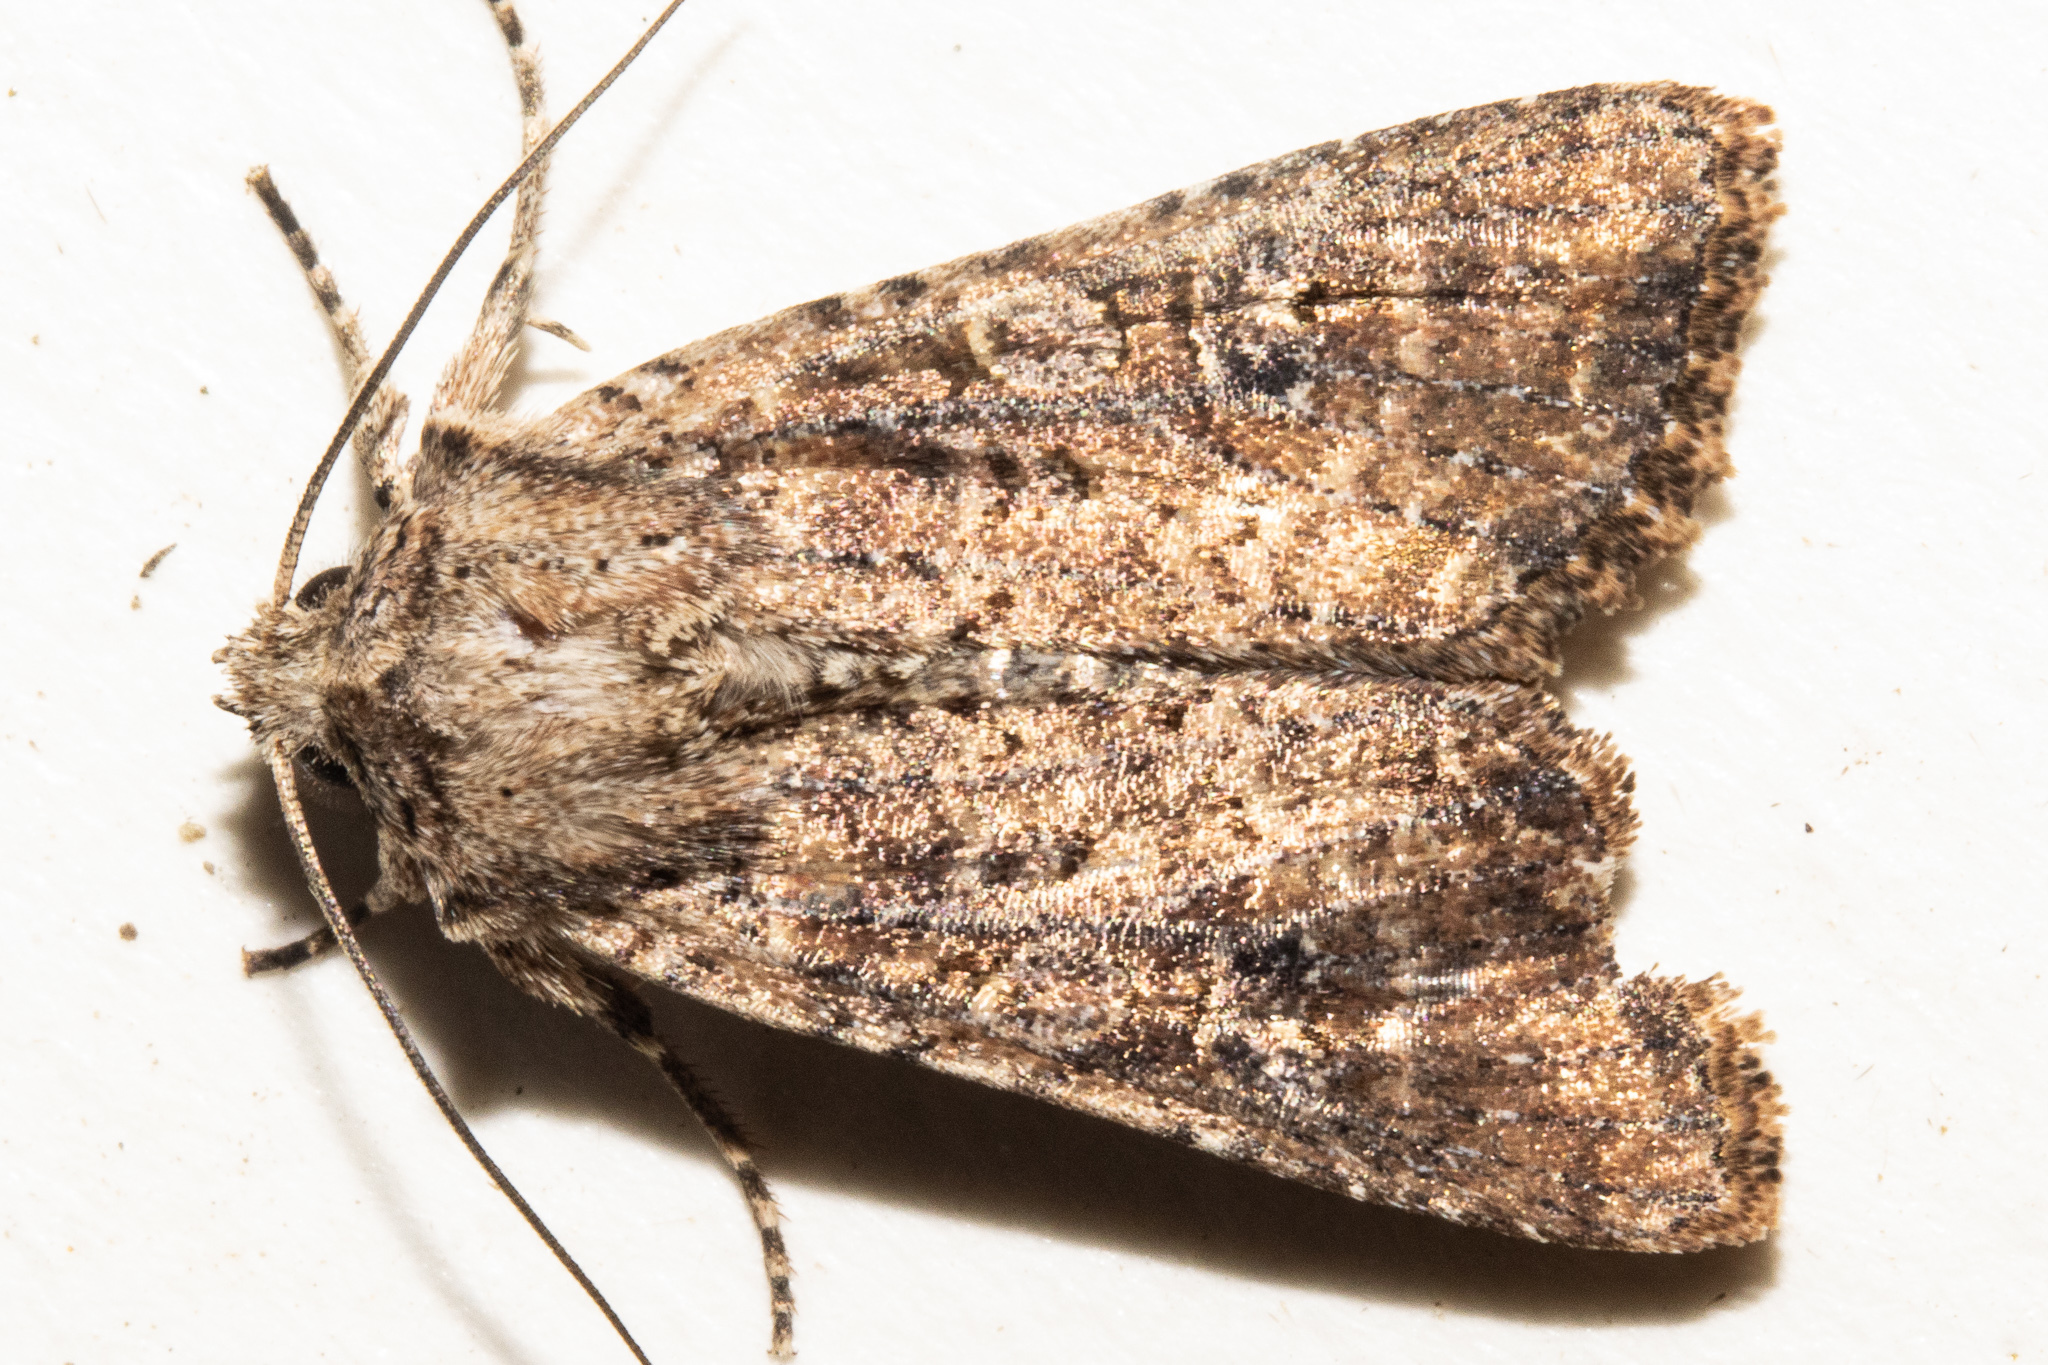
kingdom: Animalia
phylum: Arthropoda
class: Insecta
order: Lepidoptera
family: Noctuidae
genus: Ichneutica
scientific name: Ichneutica morosa
